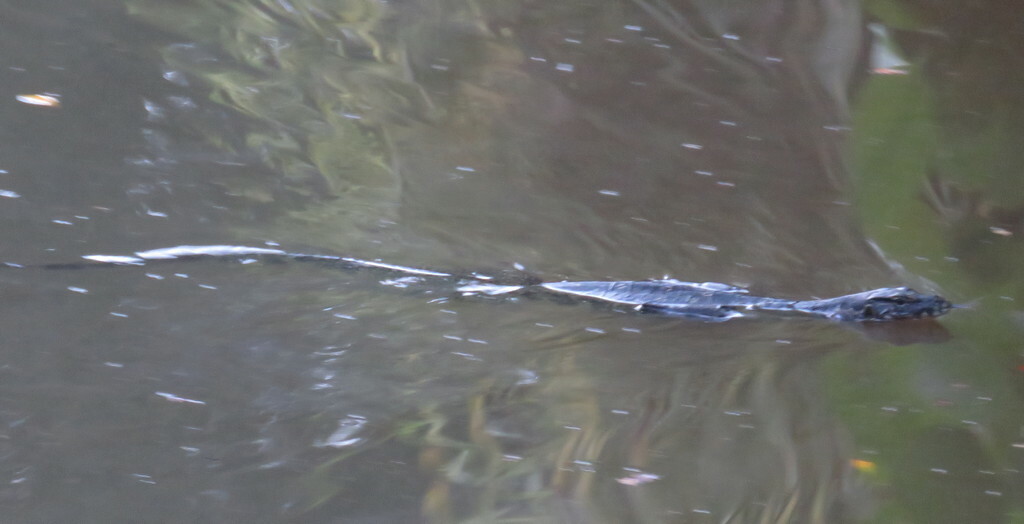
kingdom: Animalia
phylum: Chordata
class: Squamata
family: Varanidae
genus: Varanus
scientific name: Varanus salvator
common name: Common water monitor
